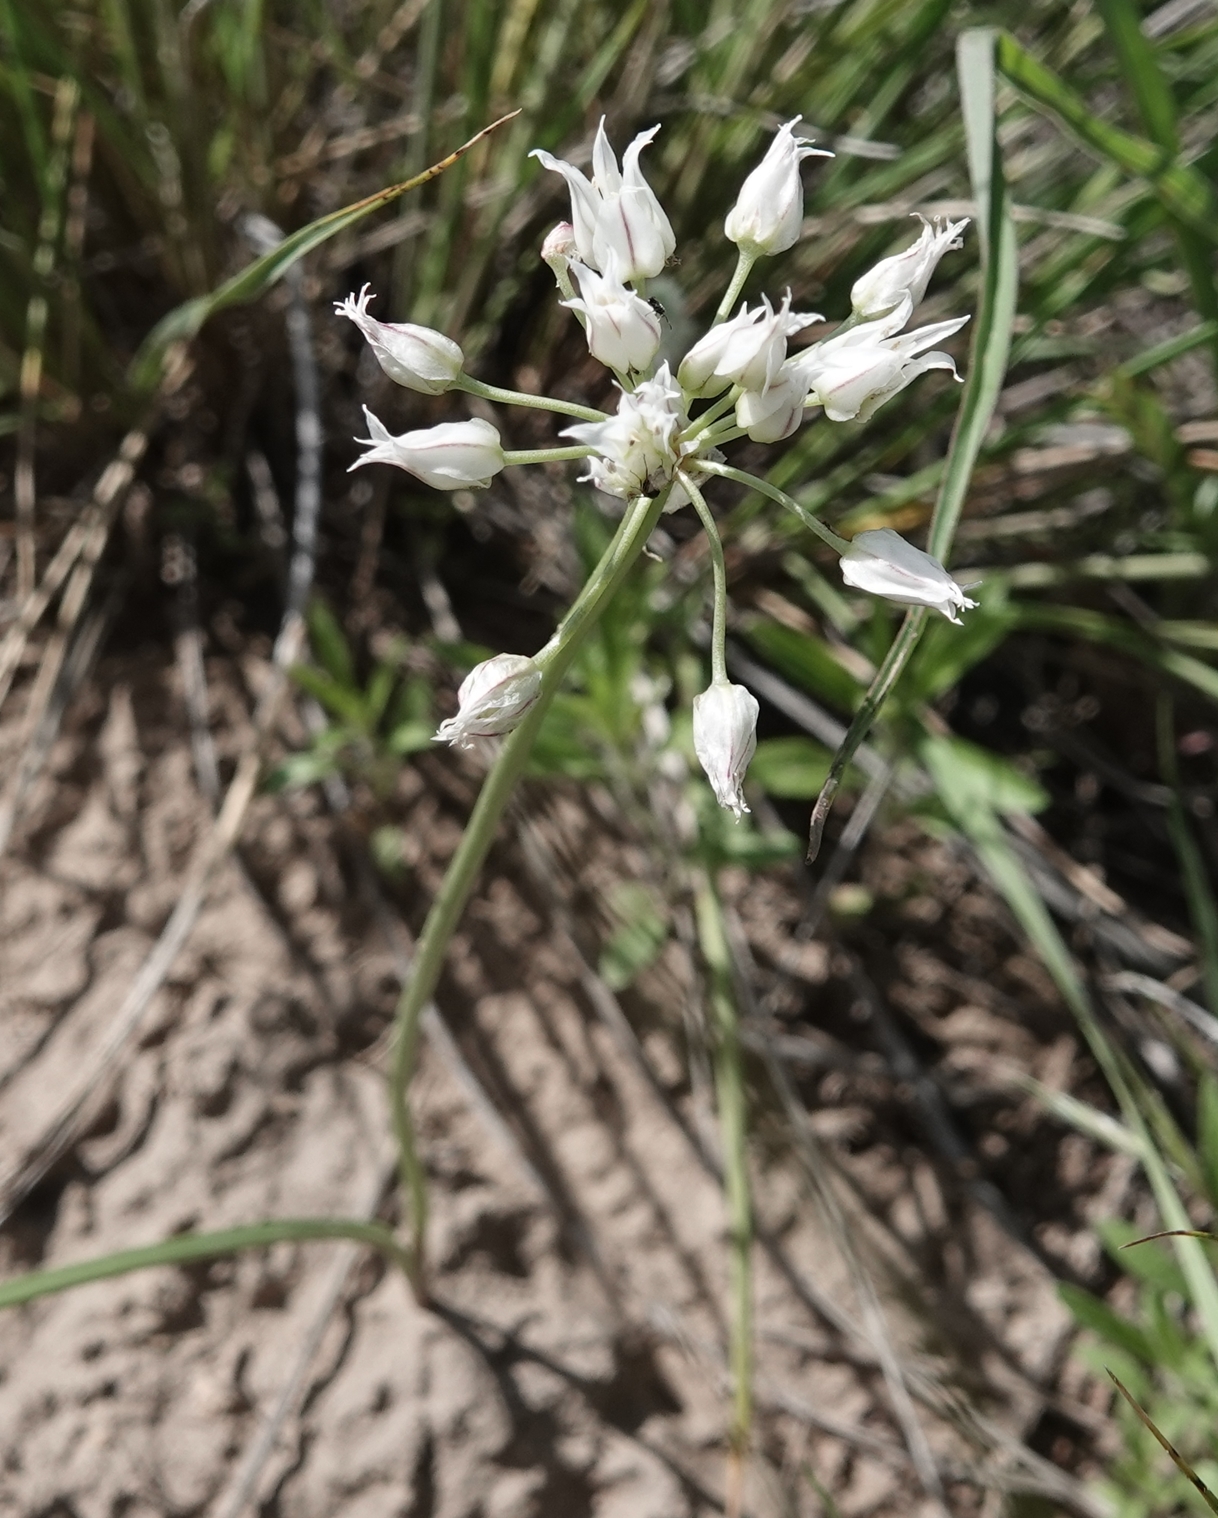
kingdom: Plantae
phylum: Tracheophyta
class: Liliopsida
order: Asparagales
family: Amaryllidaceae
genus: Allium
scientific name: Allium textile
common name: Prairie onion
